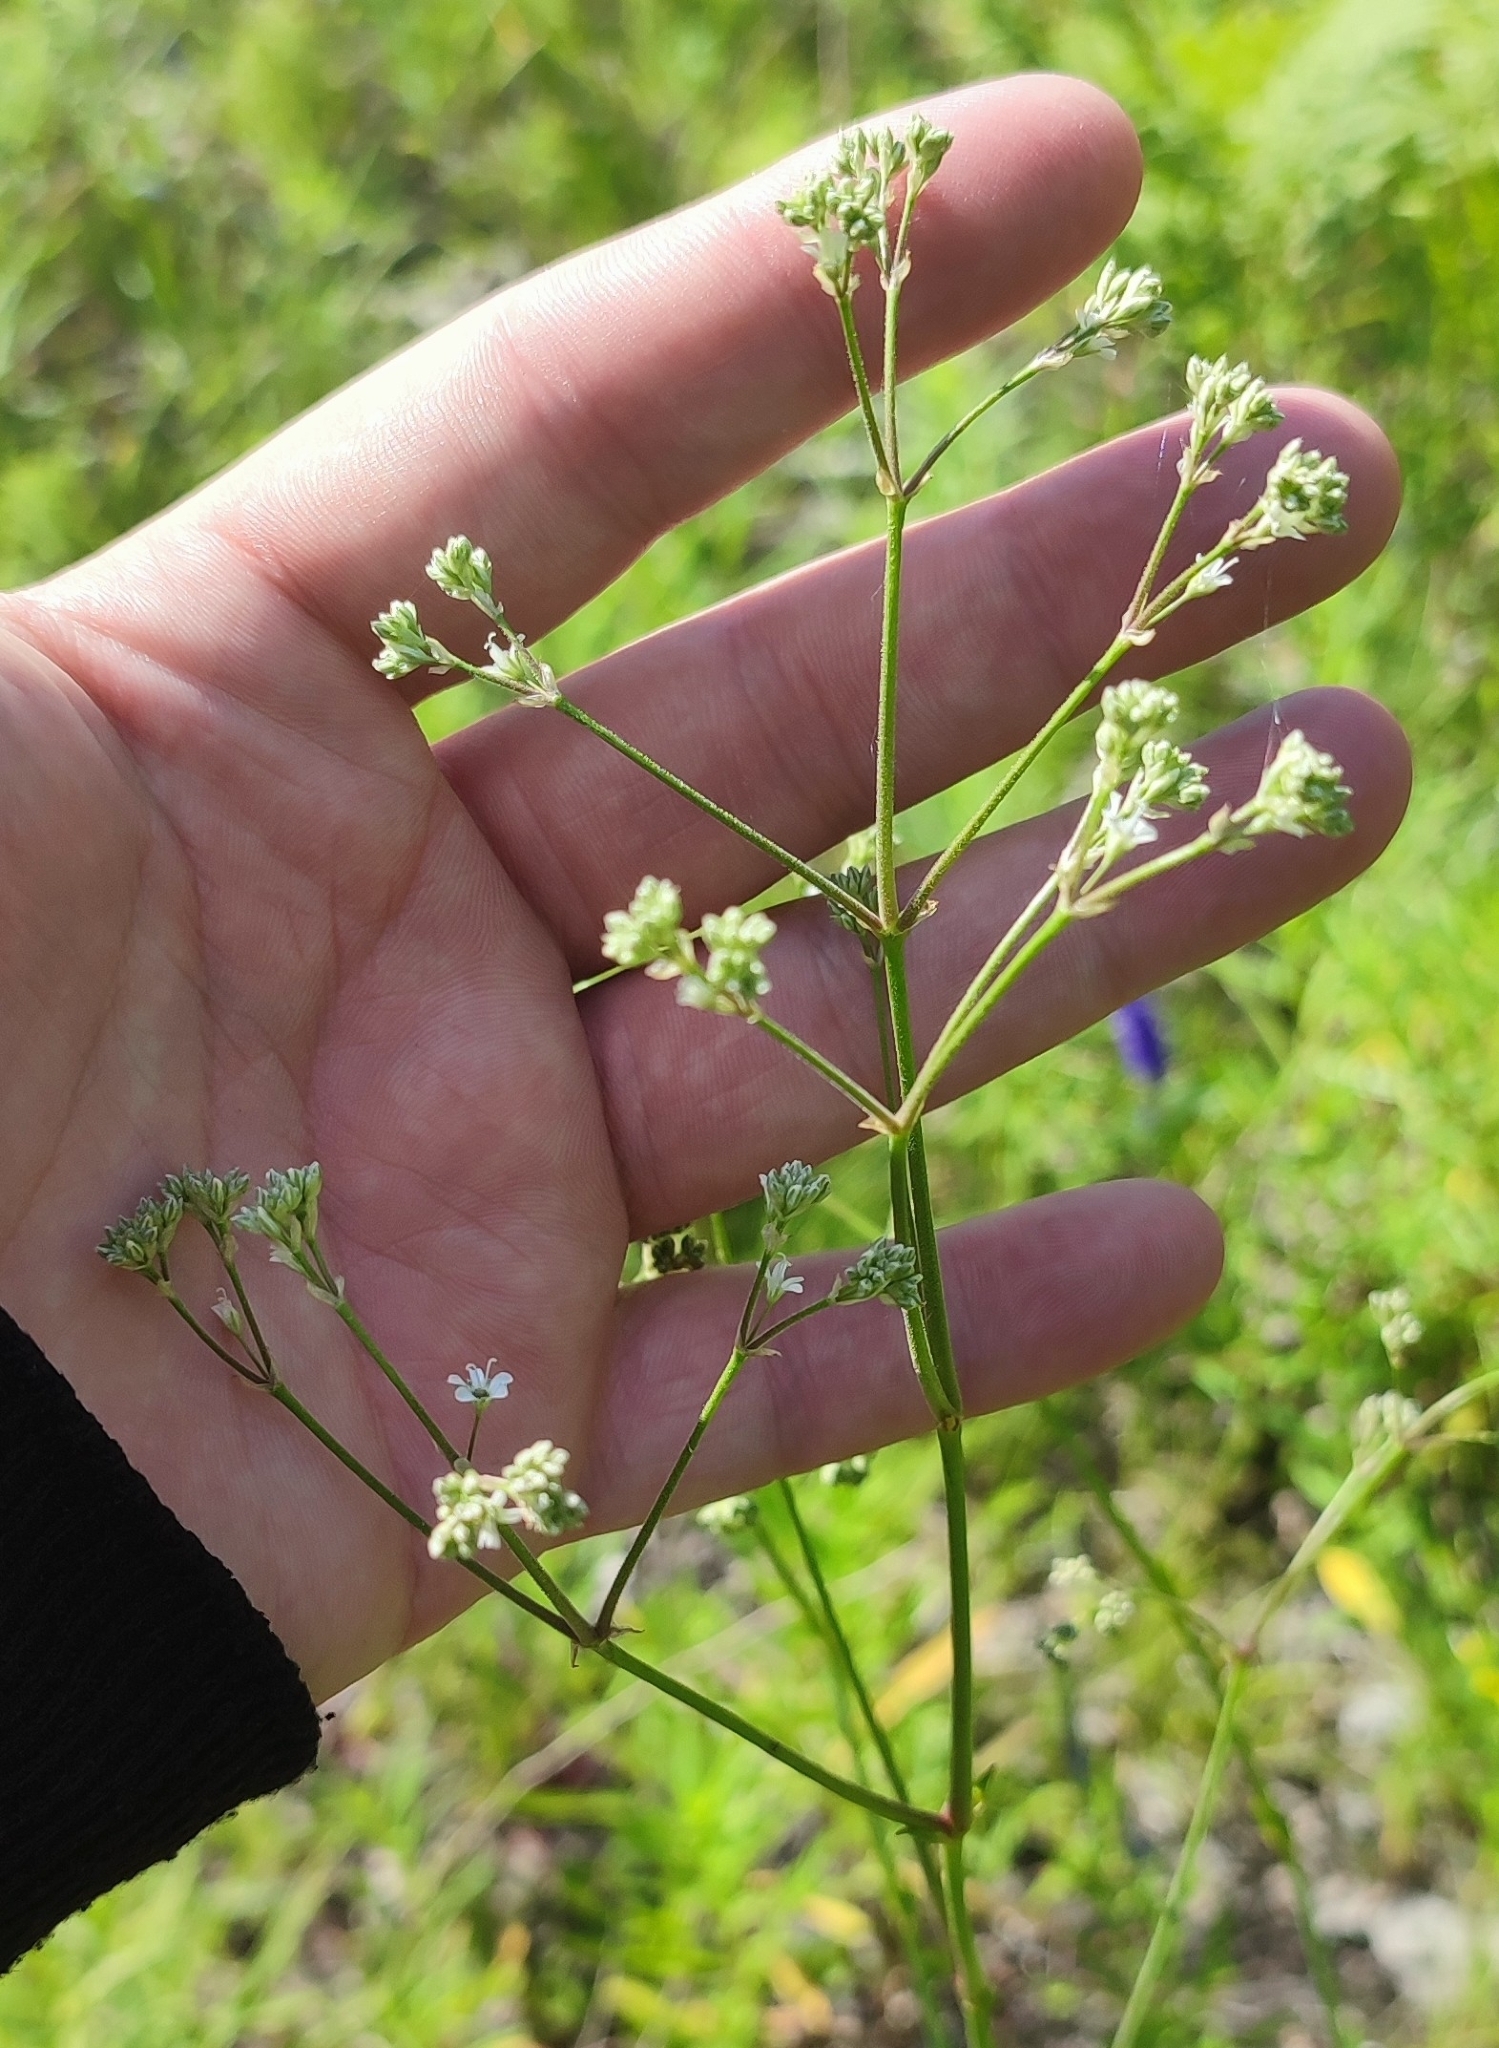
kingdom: Plantae
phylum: Tracheophyta
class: Magnoliopsida
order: Caryophyllales
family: Caryophyllaceae
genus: Gypsophila
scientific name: Gypsophila altissima
